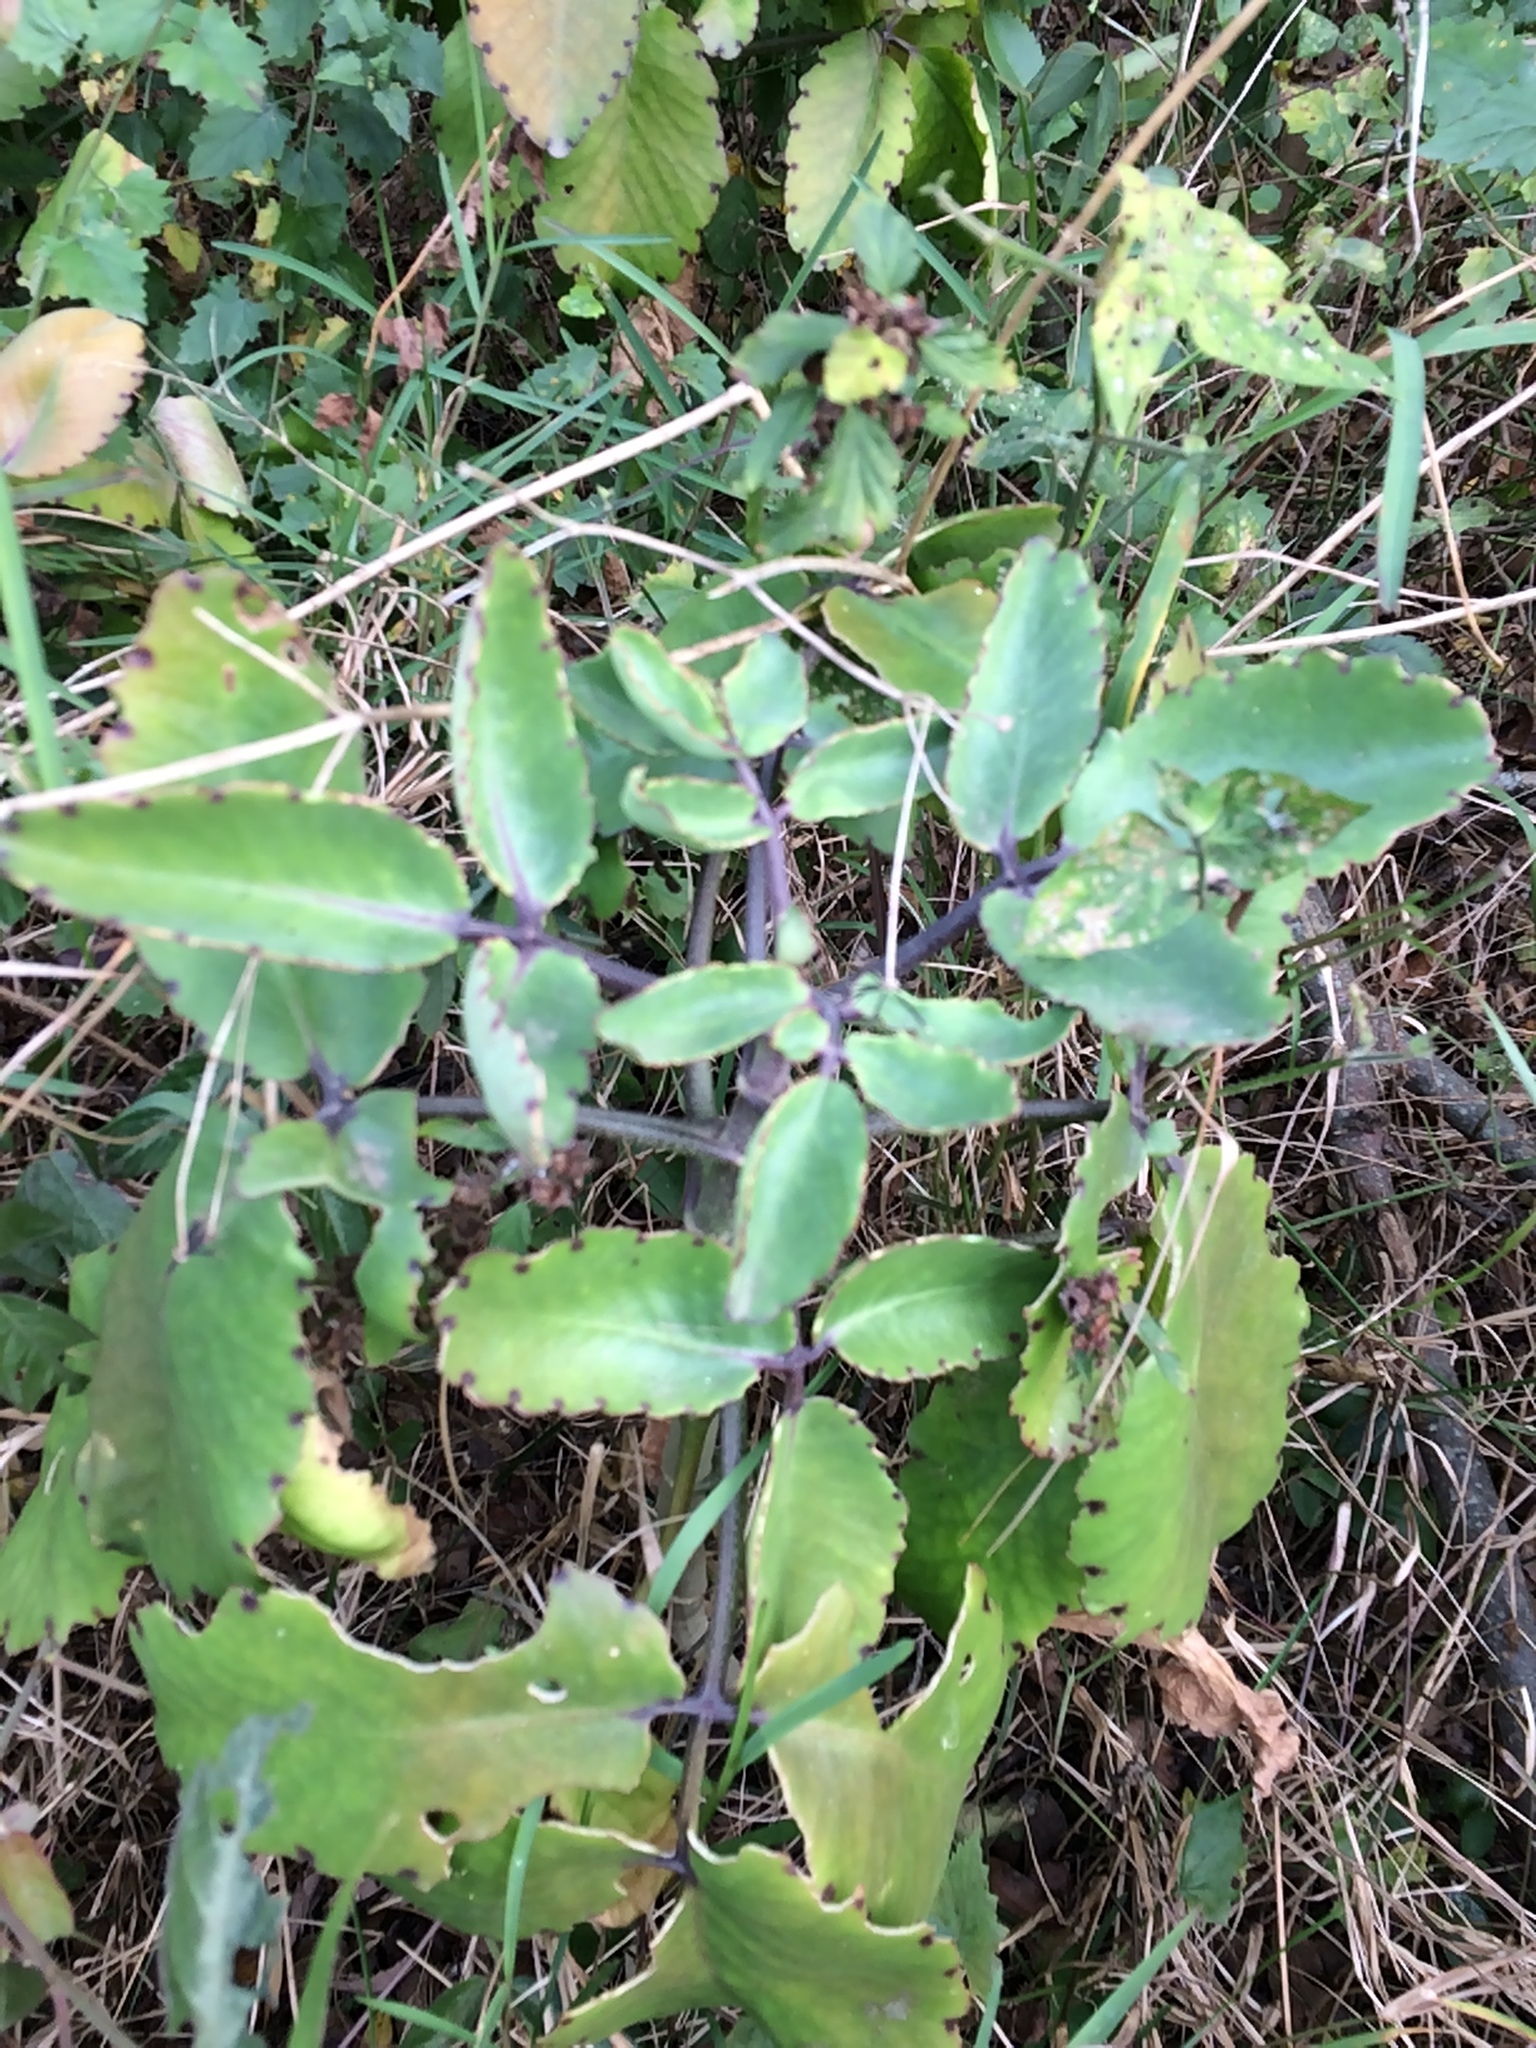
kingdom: Plantae
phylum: Tracheophyta
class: Magnoliopsida
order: Saxifragales
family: Crassulaceae
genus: Kalanchoe
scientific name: Kalanchoe pinnata
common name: Cathedral bells
